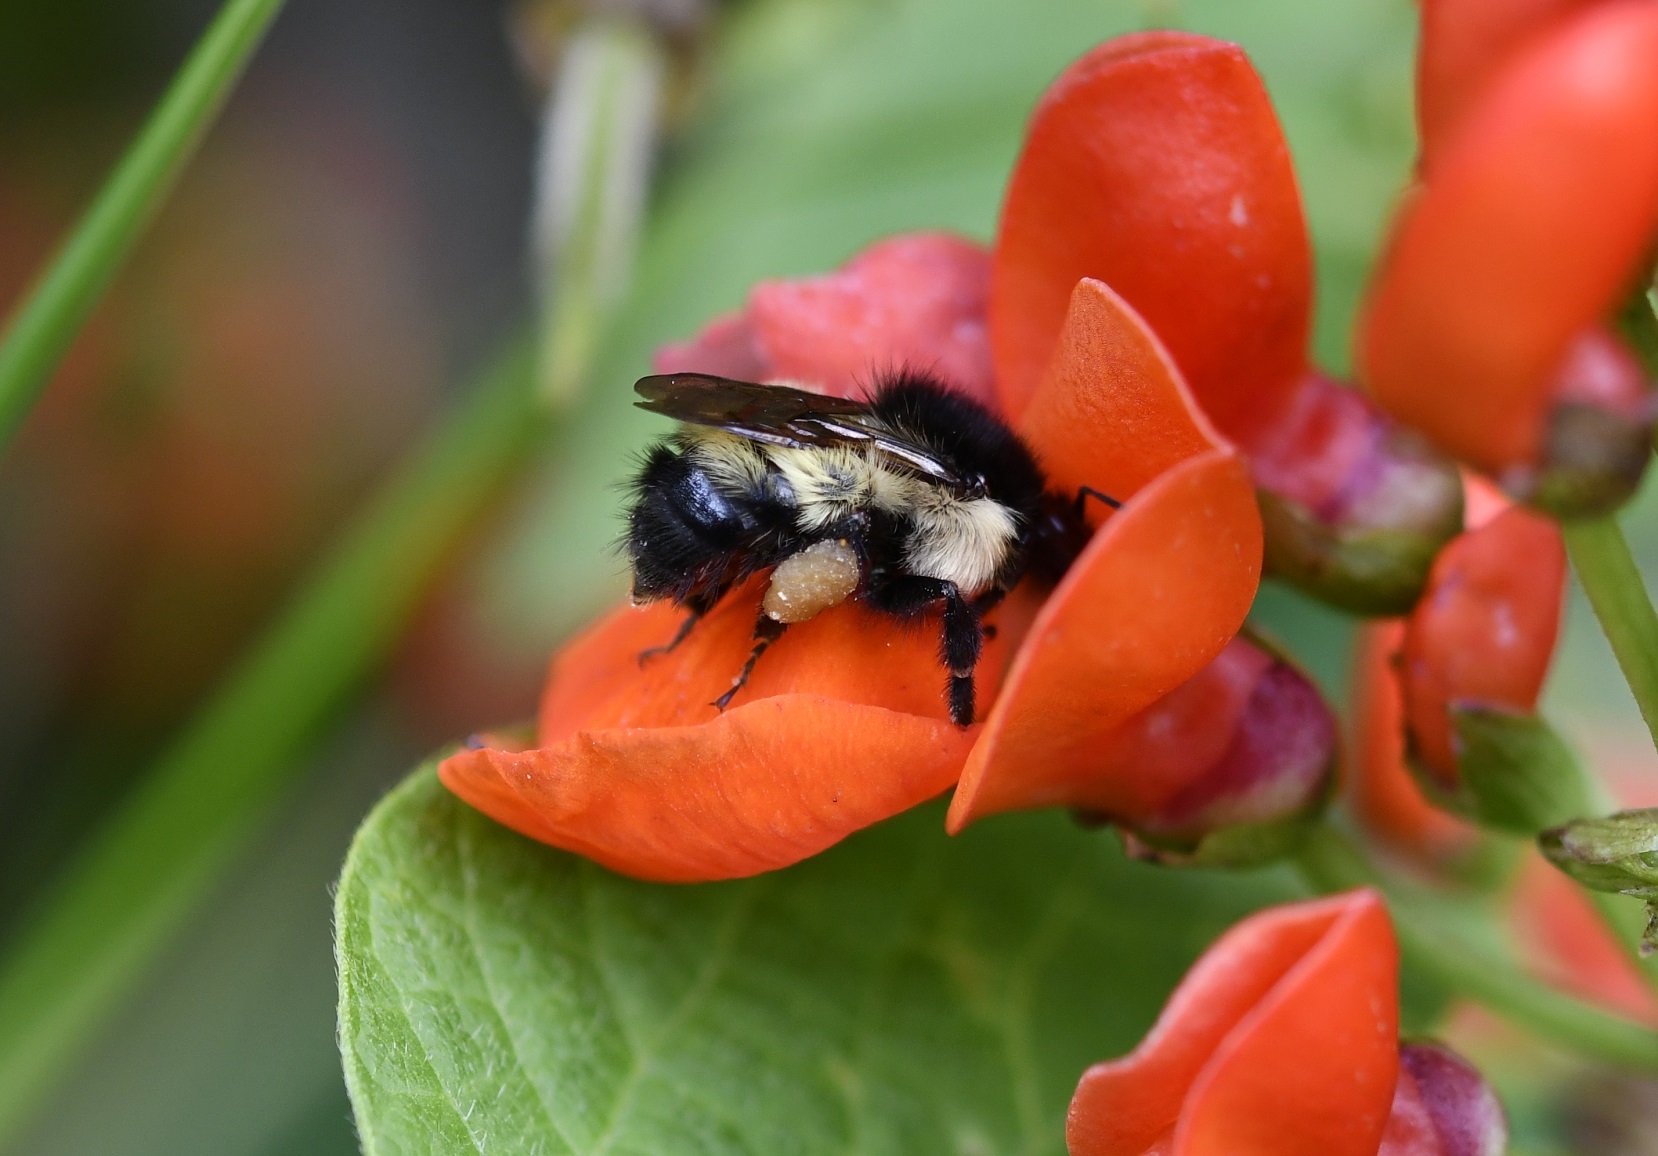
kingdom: Animalia
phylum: Arthropoda
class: Insecta
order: Hymenoptera
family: Apidae
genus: Bombus
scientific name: Bombus ephippiatus
